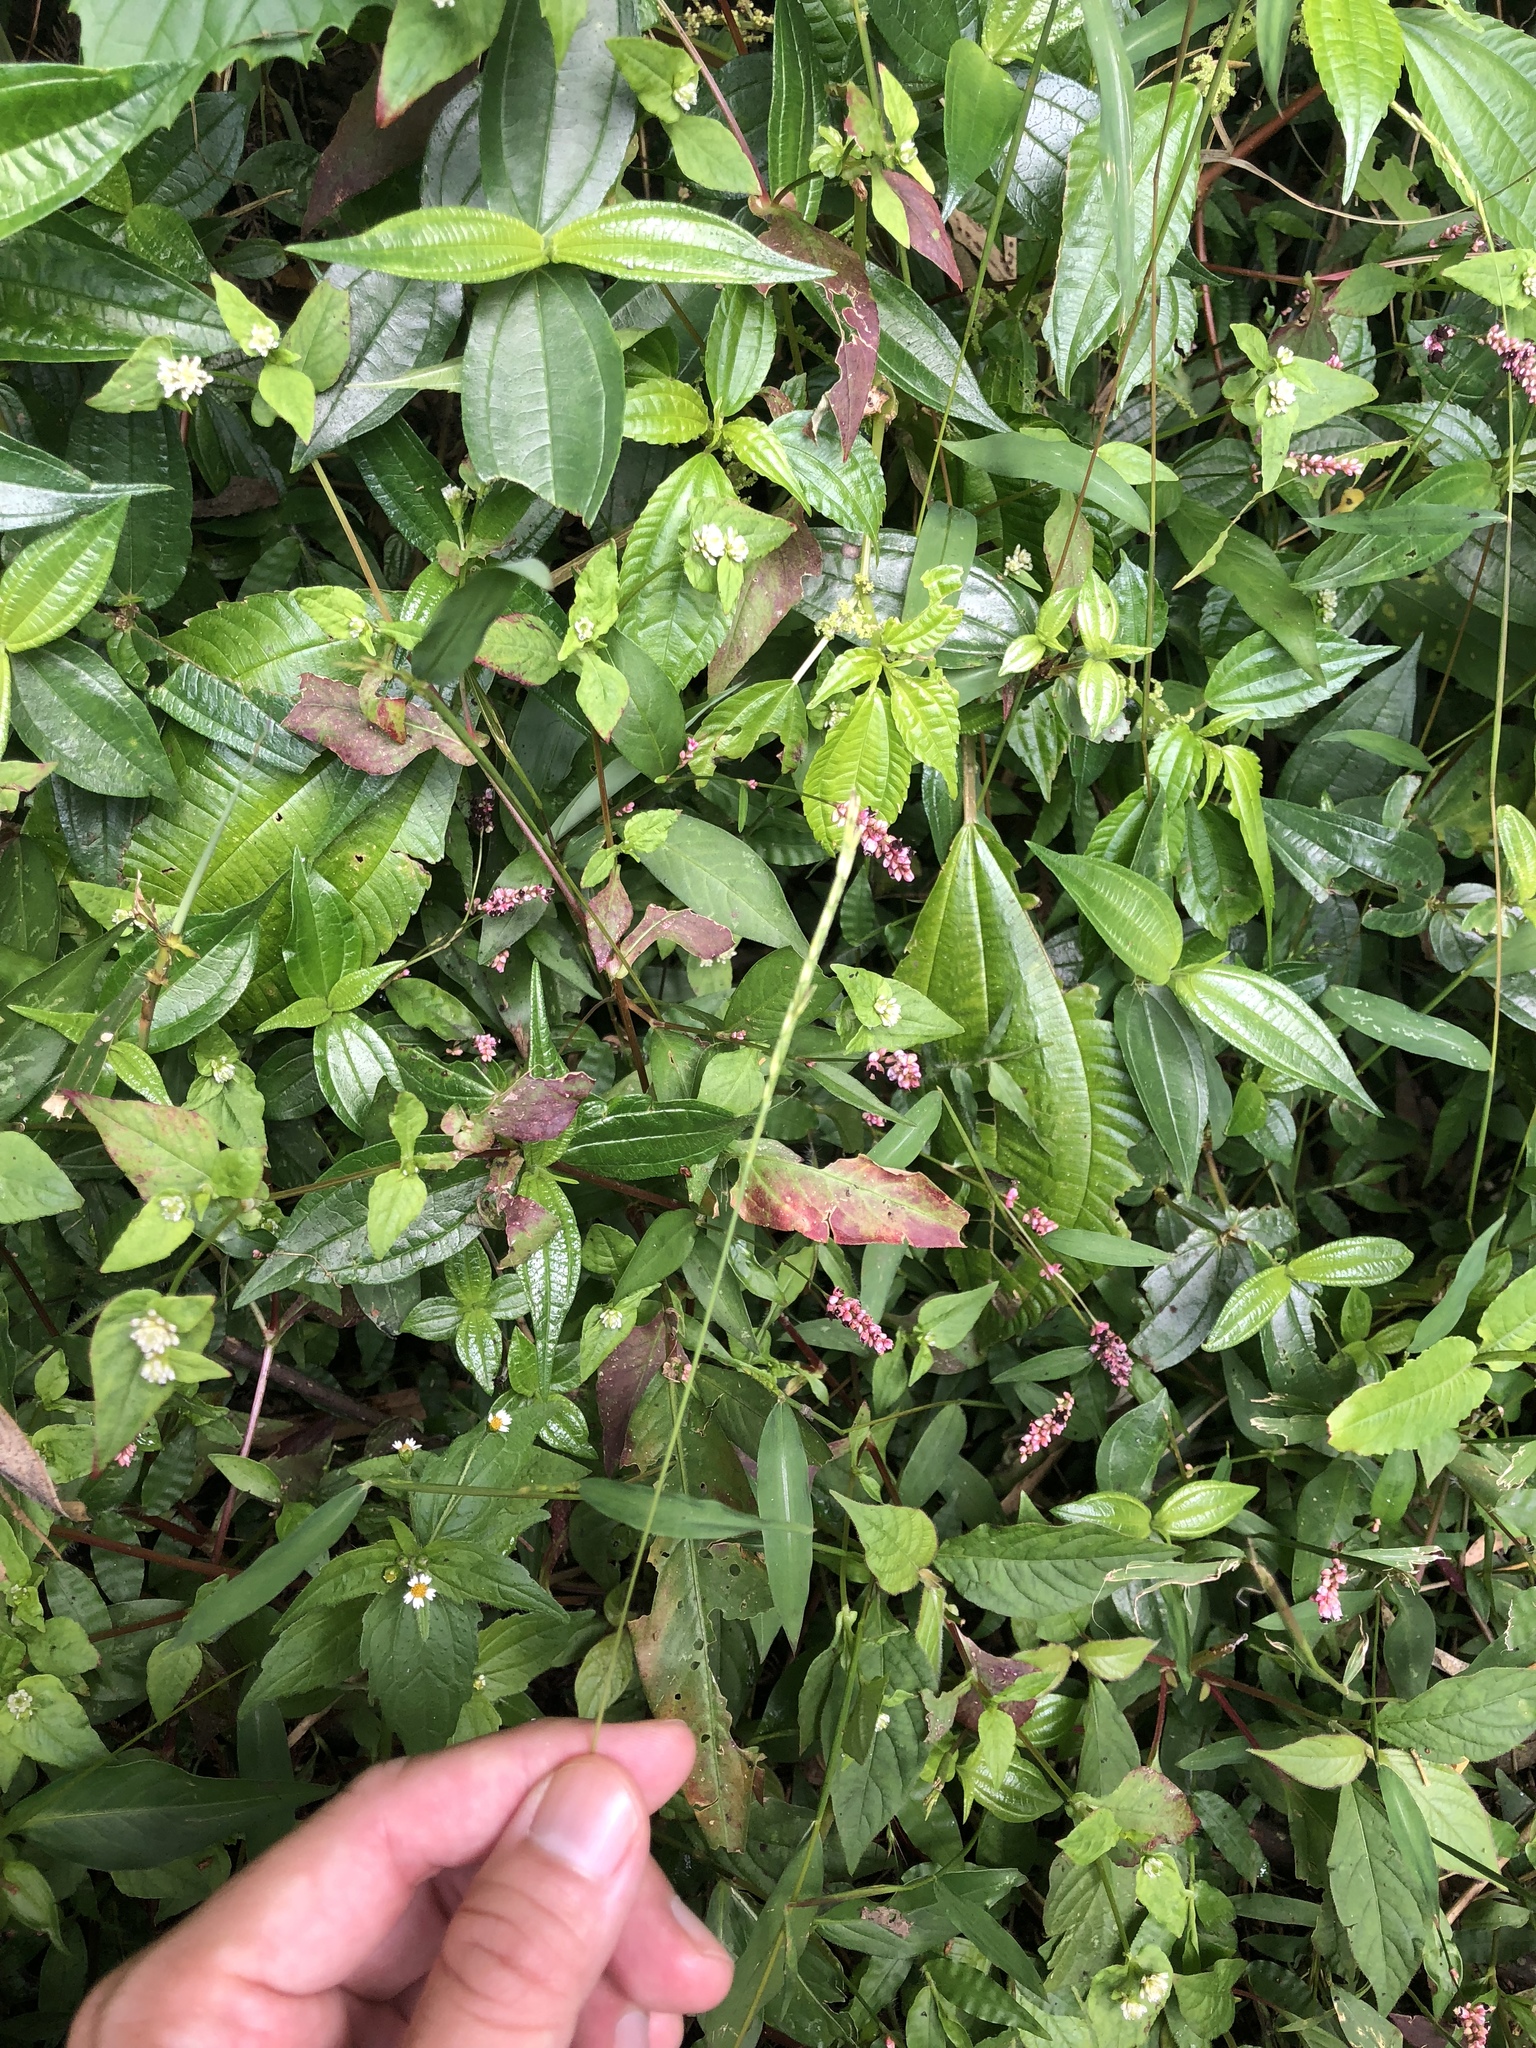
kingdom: Plantae
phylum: Tracheophyta
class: Liliopsida
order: Poales
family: Poaceae
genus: Microstegium
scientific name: Microstegium vimineum
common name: Japanese stiltgrass
